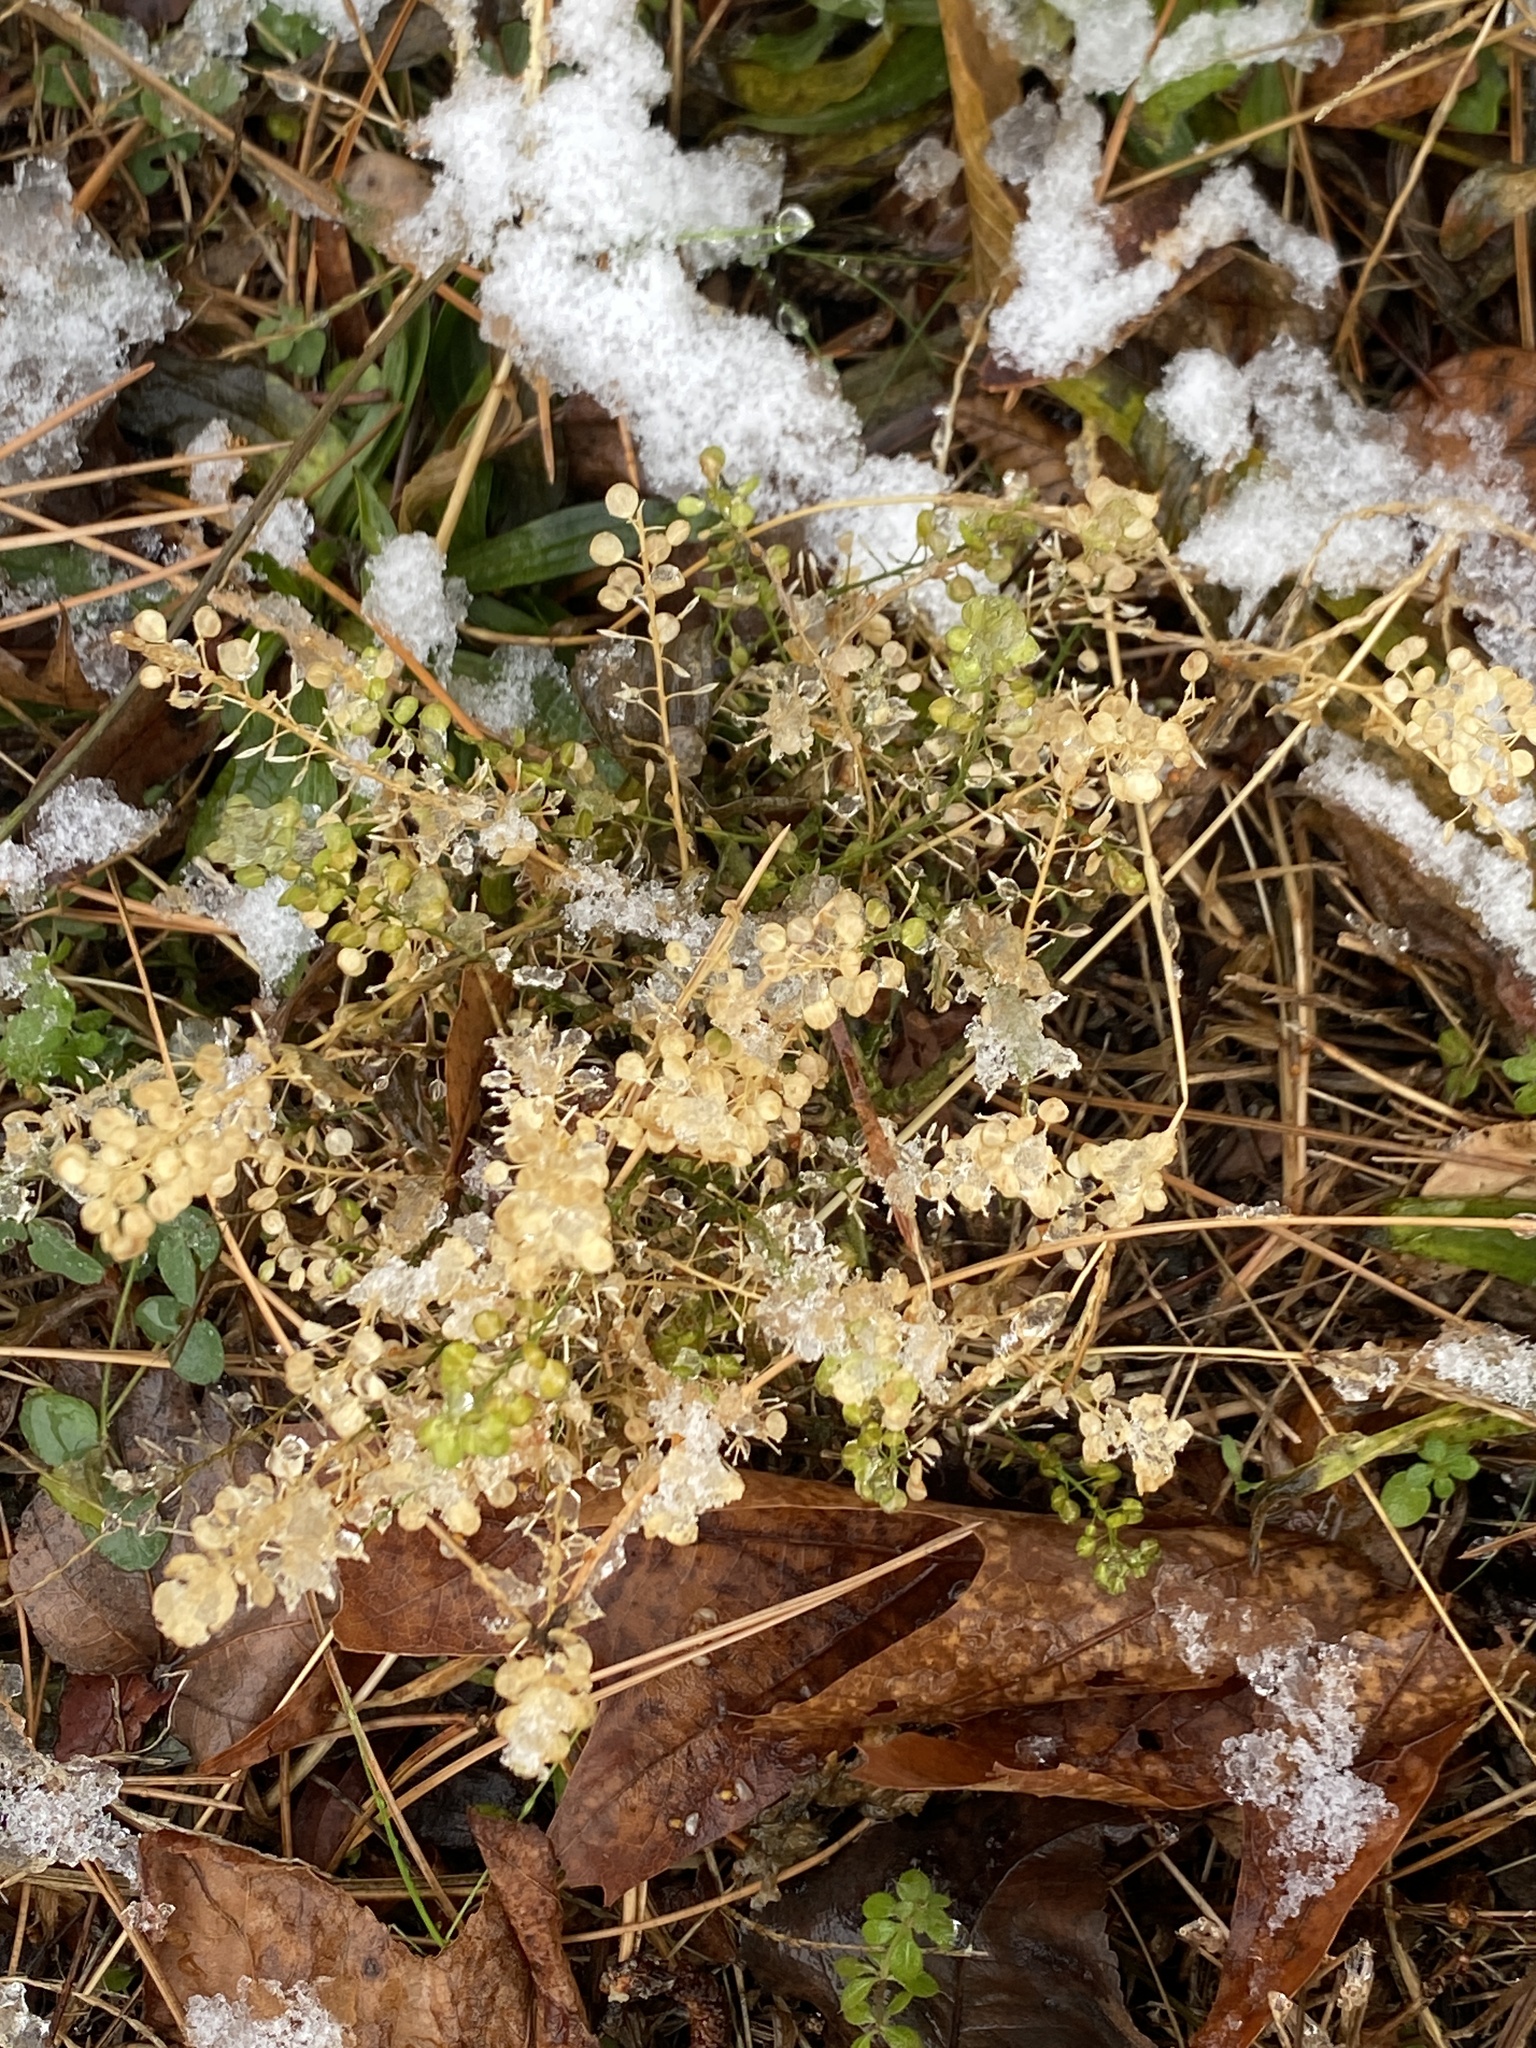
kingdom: Plantae
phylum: Tracheophyta
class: Magnoliopsida
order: Brassicales
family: Brassicaceae
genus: Lepidium
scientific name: Lepidium virginicum
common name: Least pepperwort
